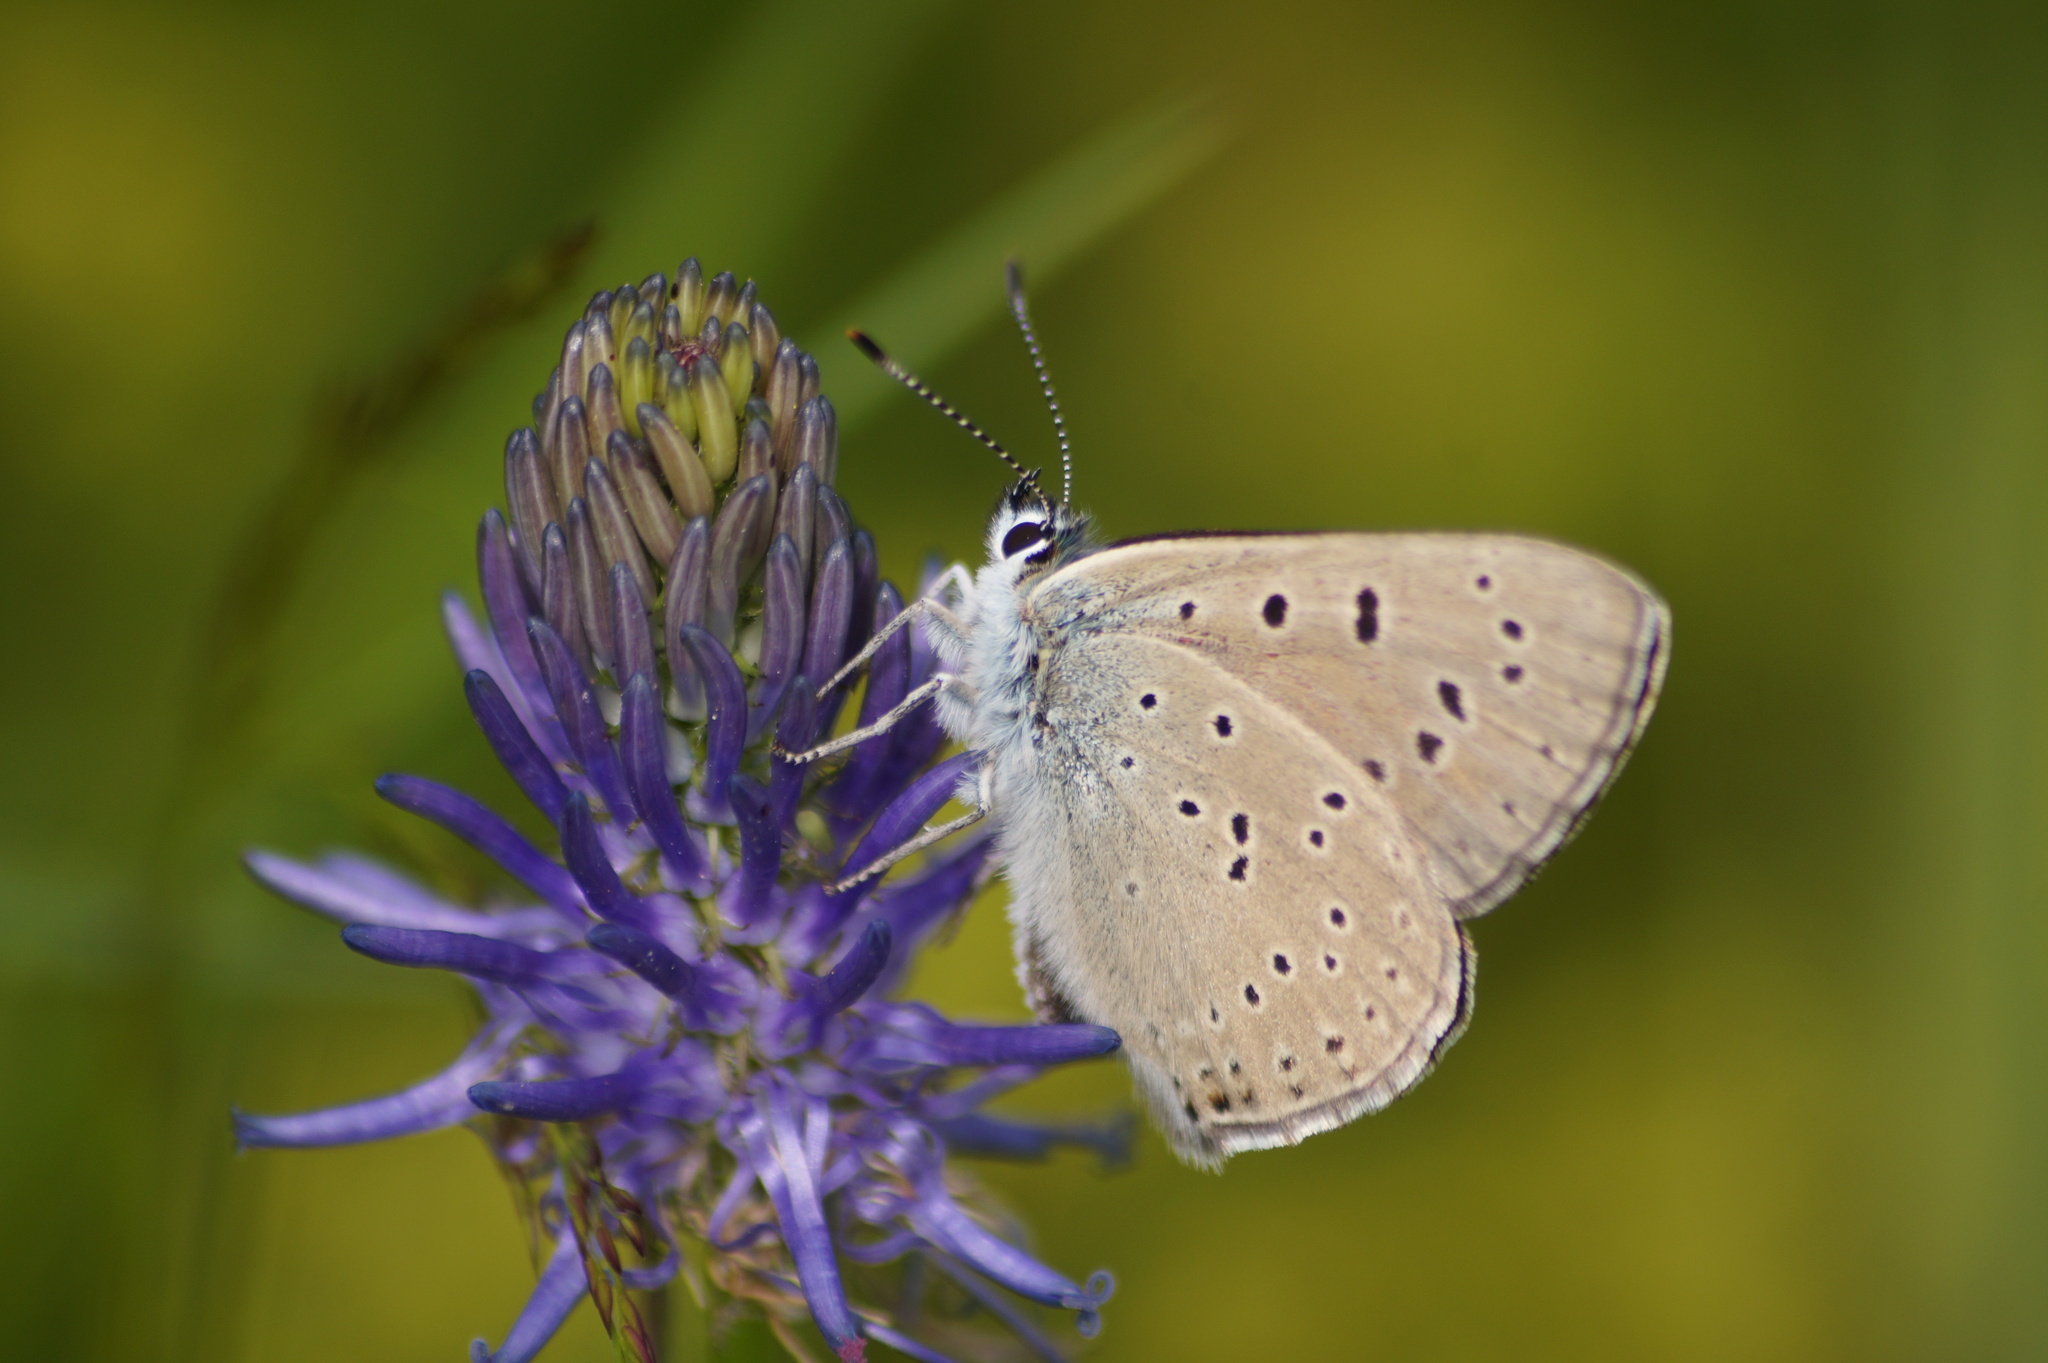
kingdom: Animalia
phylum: Arthropoda
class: Insecta
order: Lepidoptera
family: Lycaenidae
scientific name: Lycaenidae
